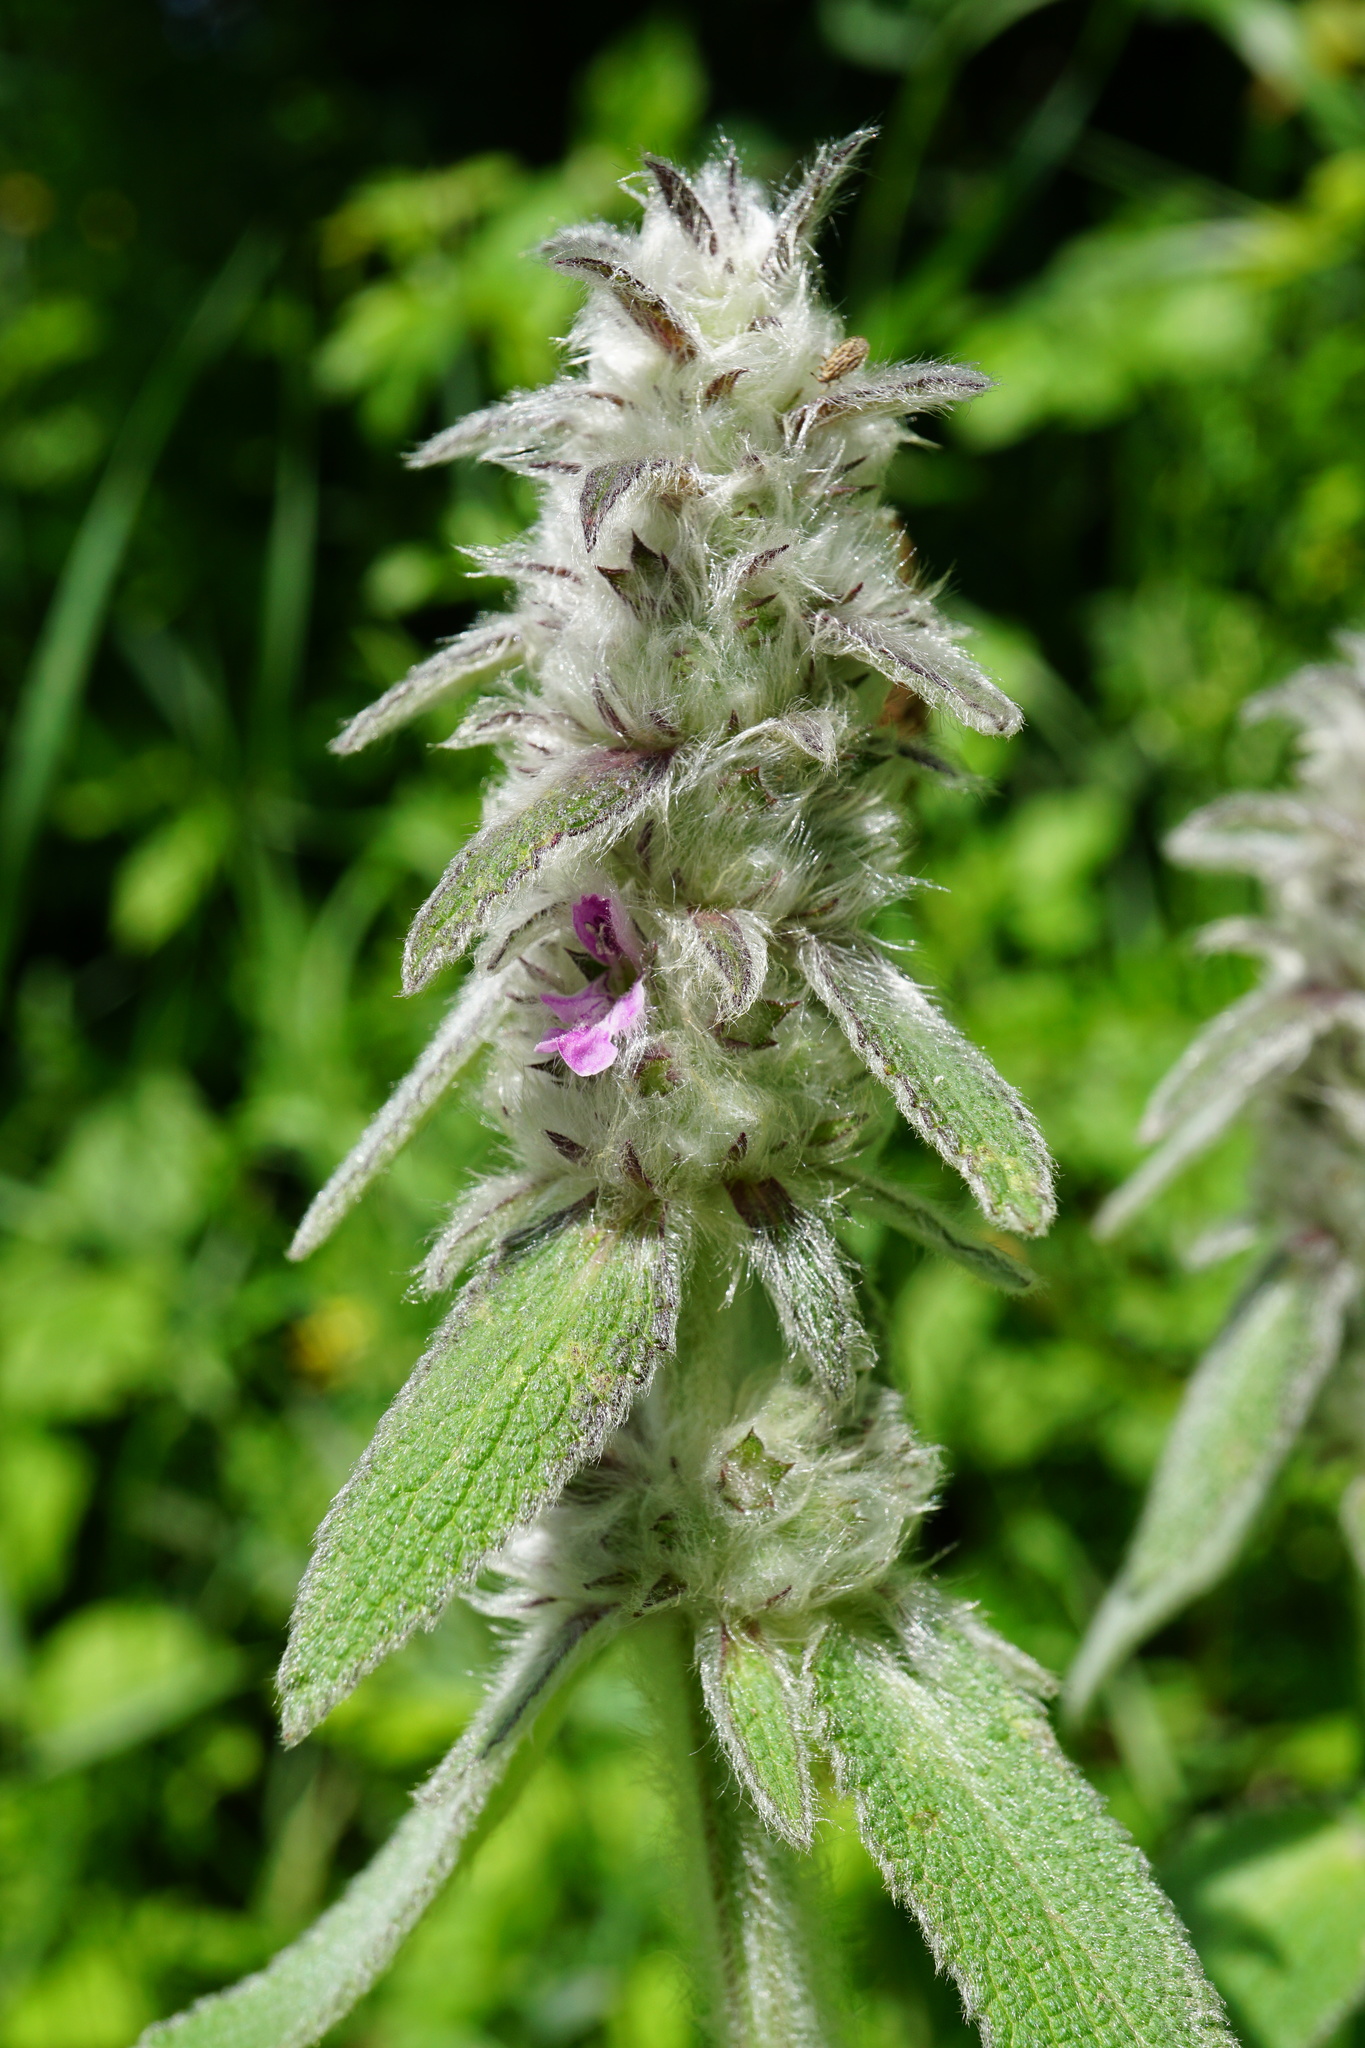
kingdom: Plantae
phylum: Tracheophyta
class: Magnoliopsida
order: Lamiales
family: Lamiaceae
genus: Stachys
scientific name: Stachys germanica
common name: Downy woundwort
